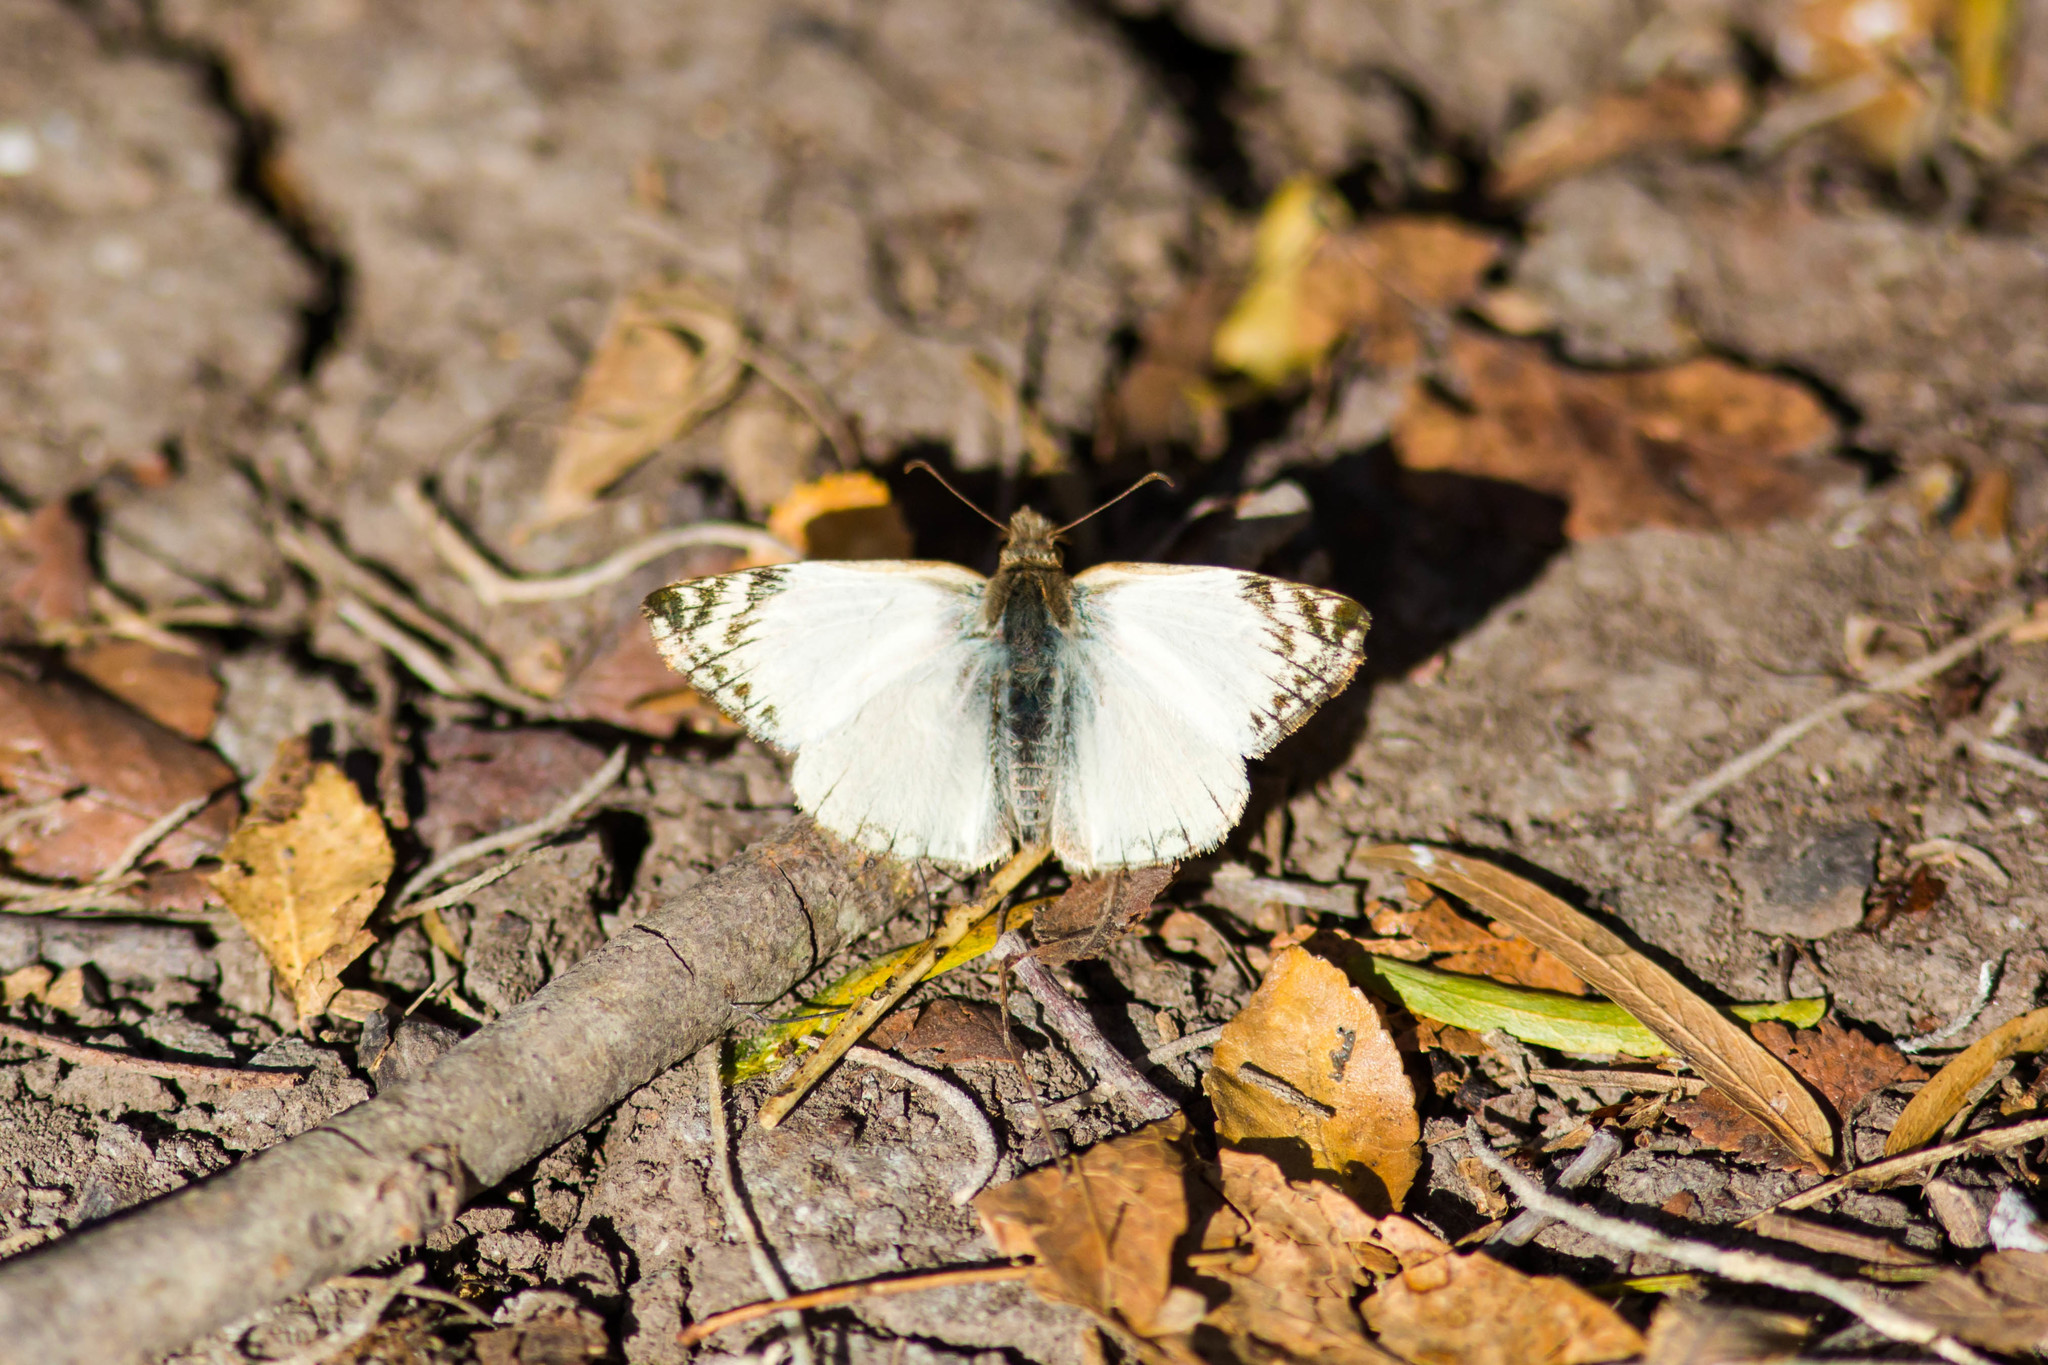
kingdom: Animalia
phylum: Arthropoda
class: Insecta
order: Lepidoptera
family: Hesperiidae
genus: Heliopetes
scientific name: Heliopetes laviana
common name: Laviana white-skipper
